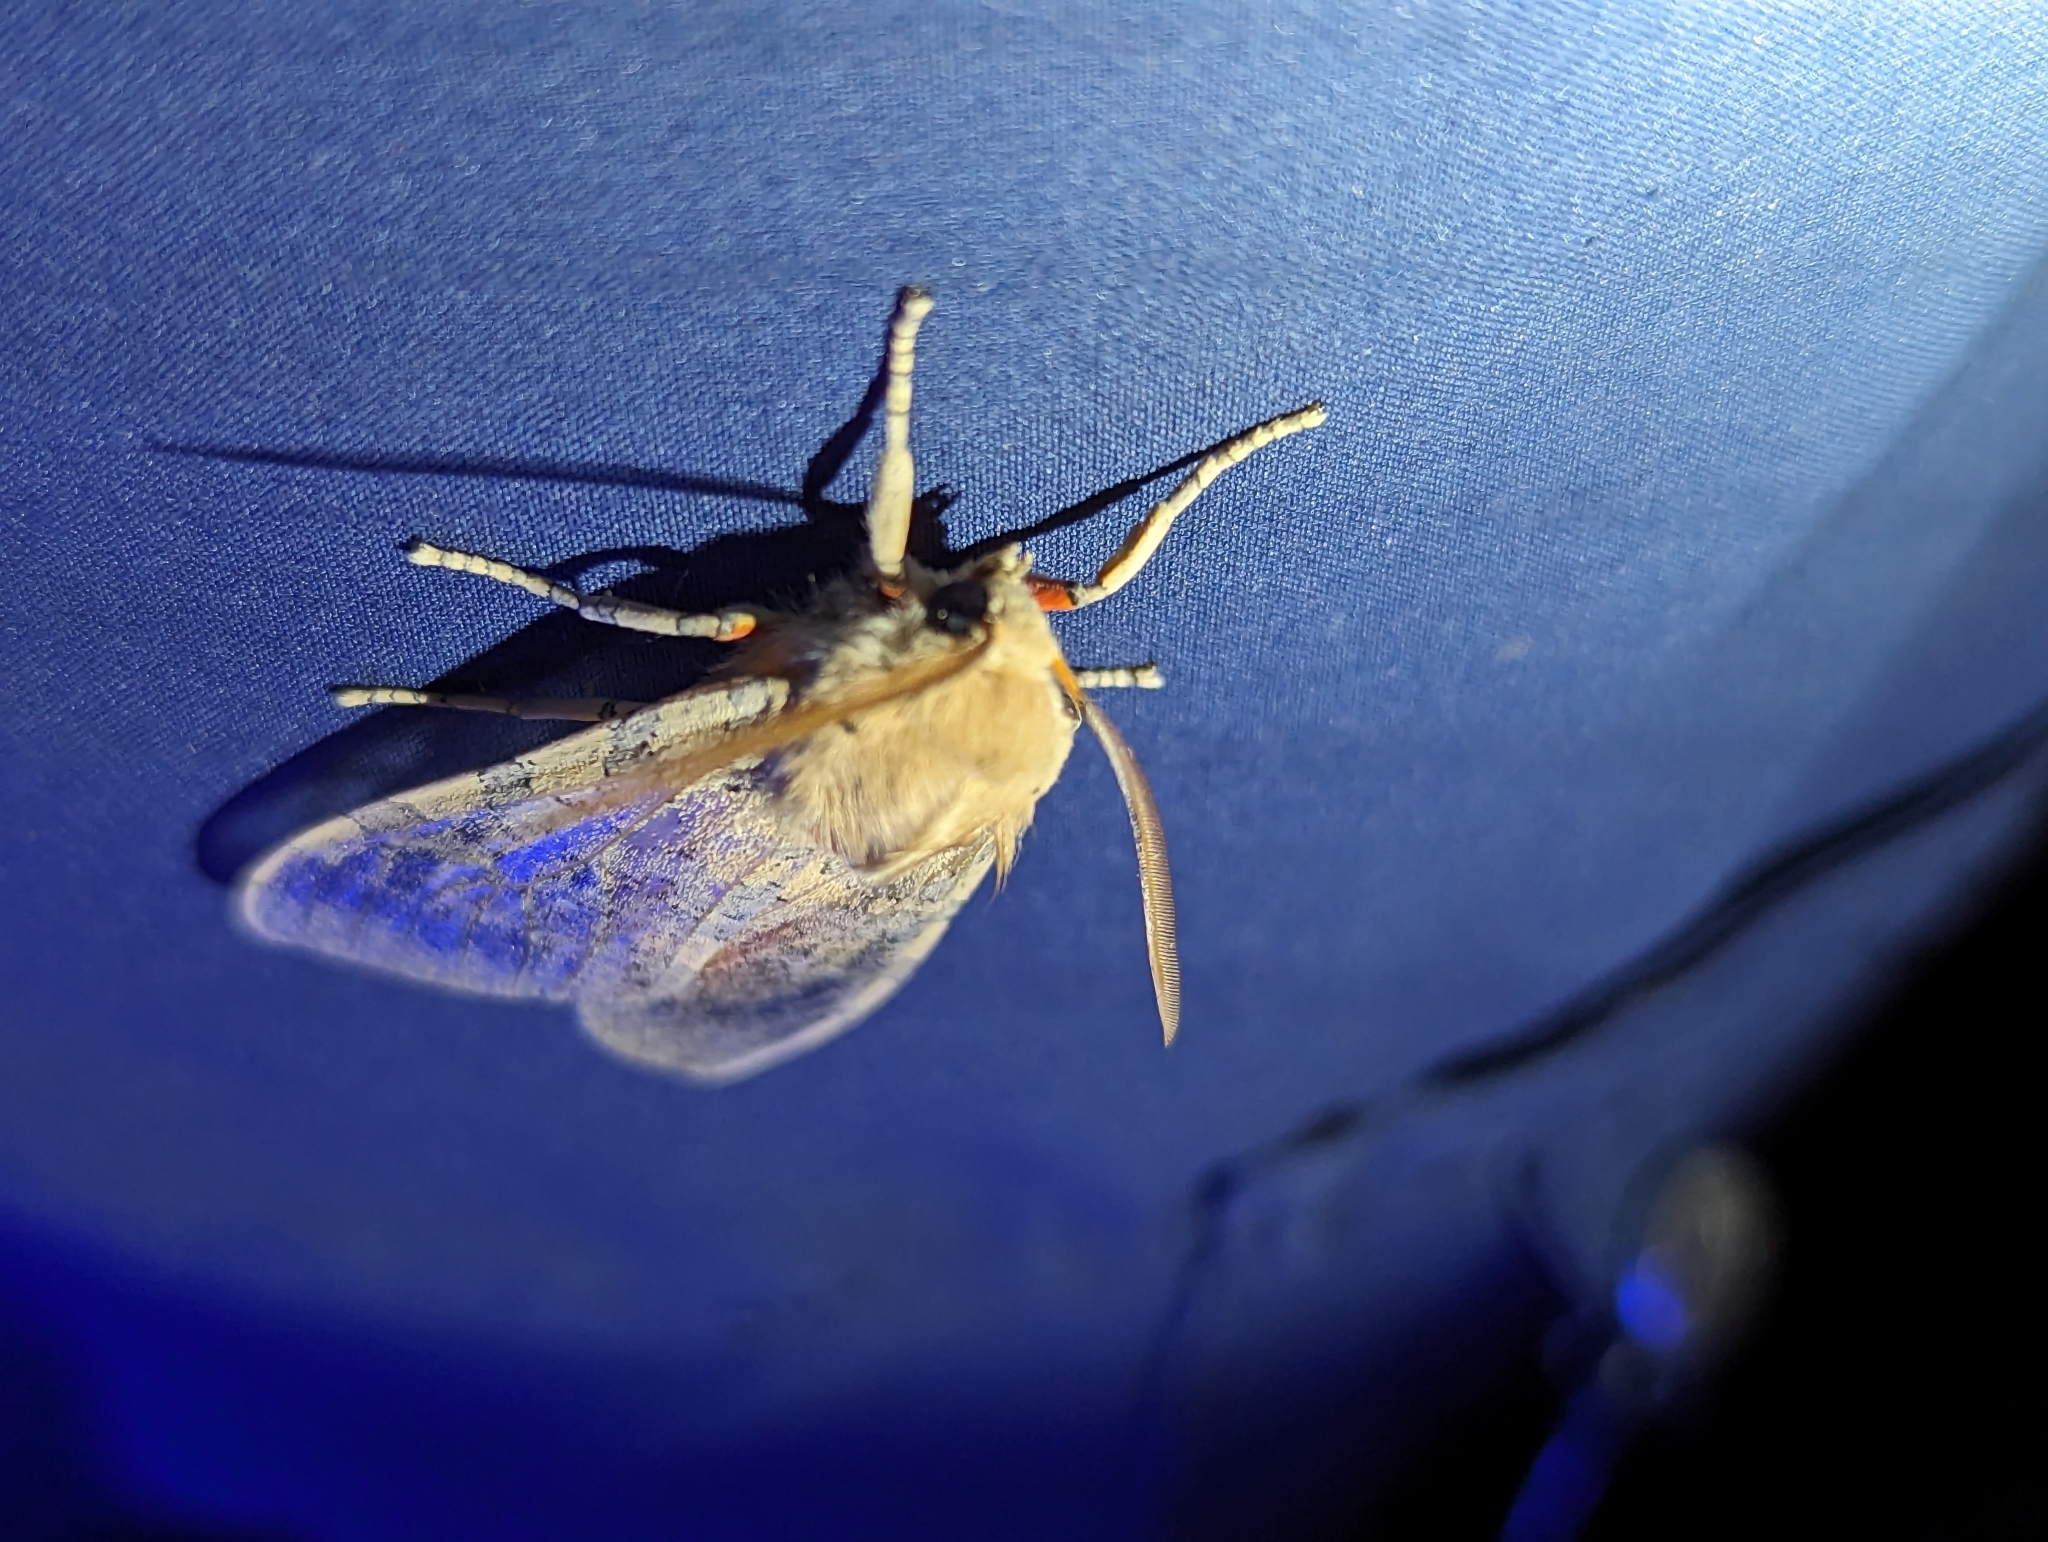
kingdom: Animalia
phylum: Arthropoda
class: Insecta
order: Lepidoptera
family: Erebidae
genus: Hemihyalea
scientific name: Hemihyalea edwardsii
